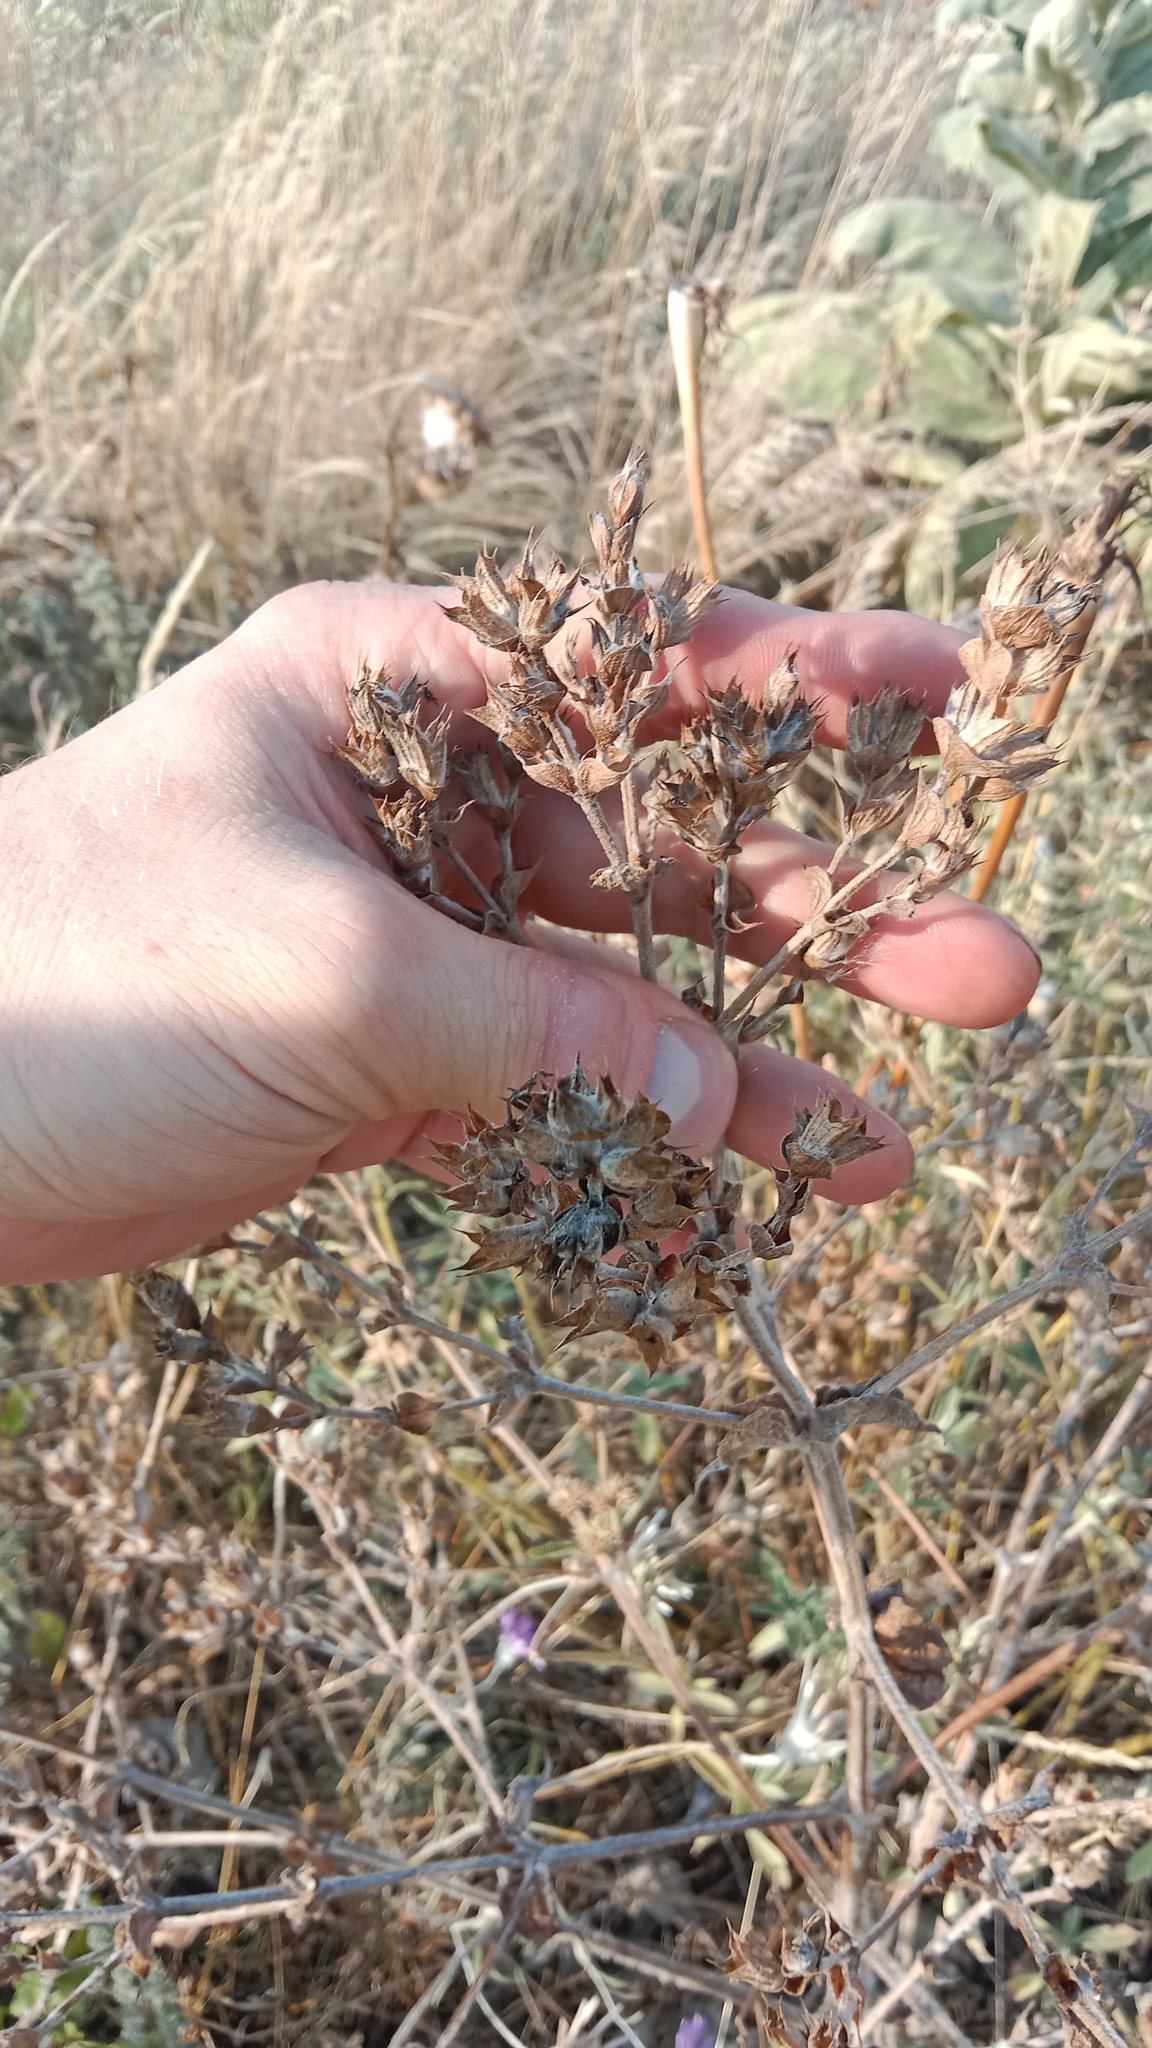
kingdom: Plantae
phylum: Tracheophyta
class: Magnoliopsida
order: Lamiales
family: Lamiaceae
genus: Salvia
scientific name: Salvia aethiopis
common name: Mediterranean sage
